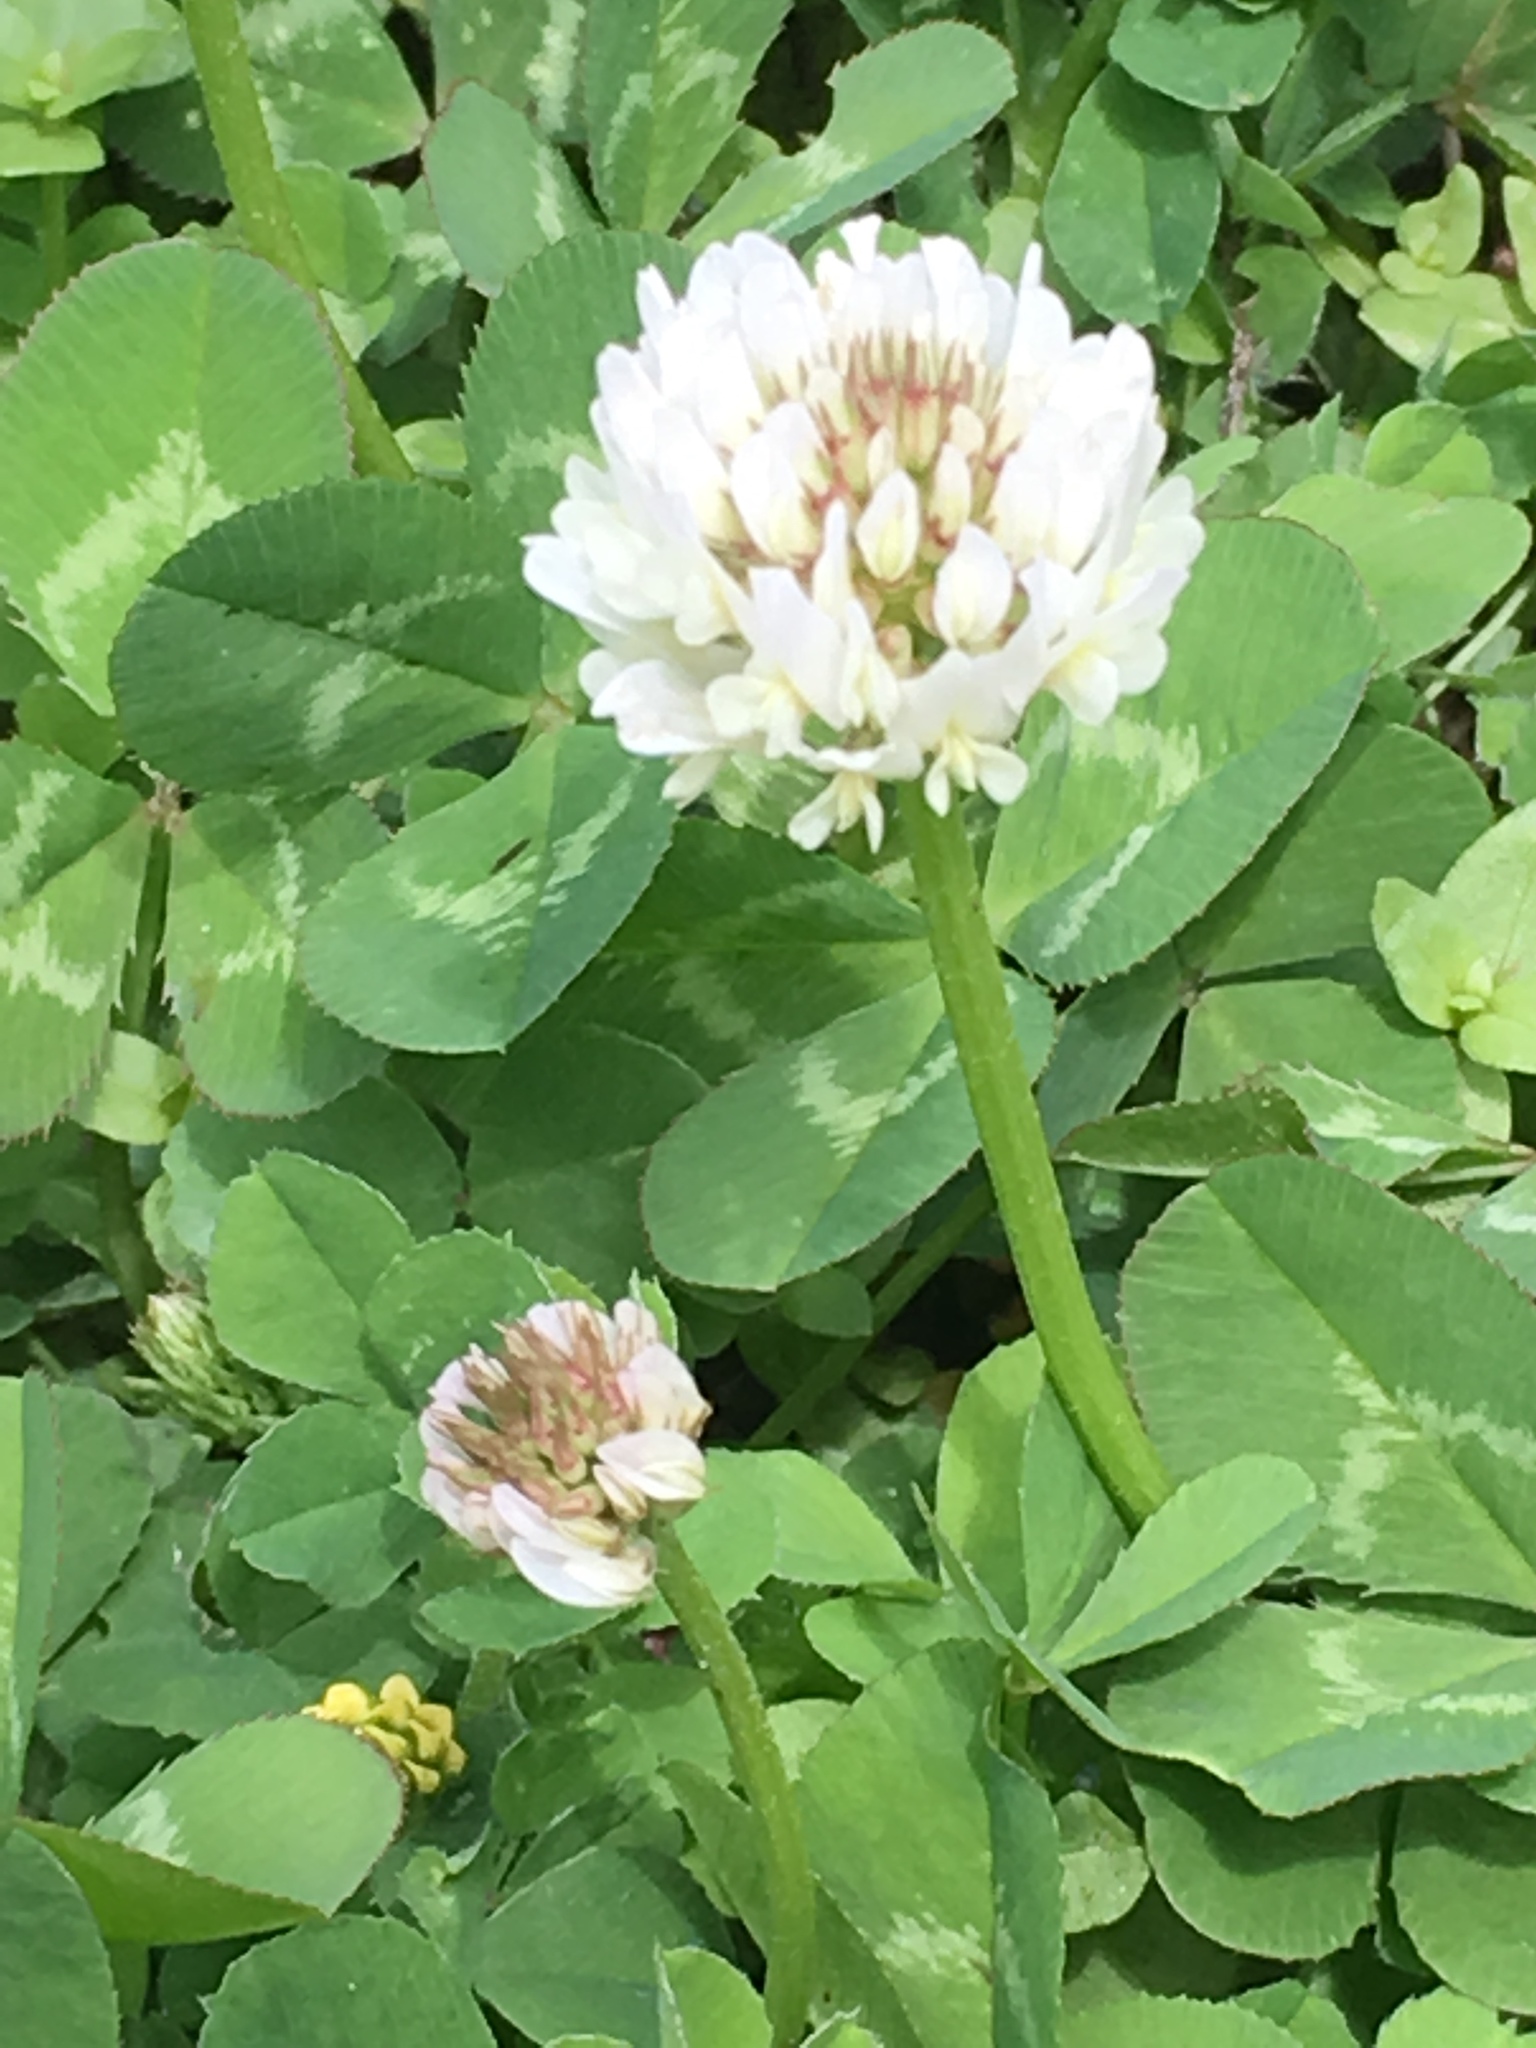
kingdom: Plantae
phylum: Tracheophyta
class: Magnoliopsida
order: Fabales
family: Fabaceae
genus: Trifolium
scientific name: Trifolium repens
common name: White clover
